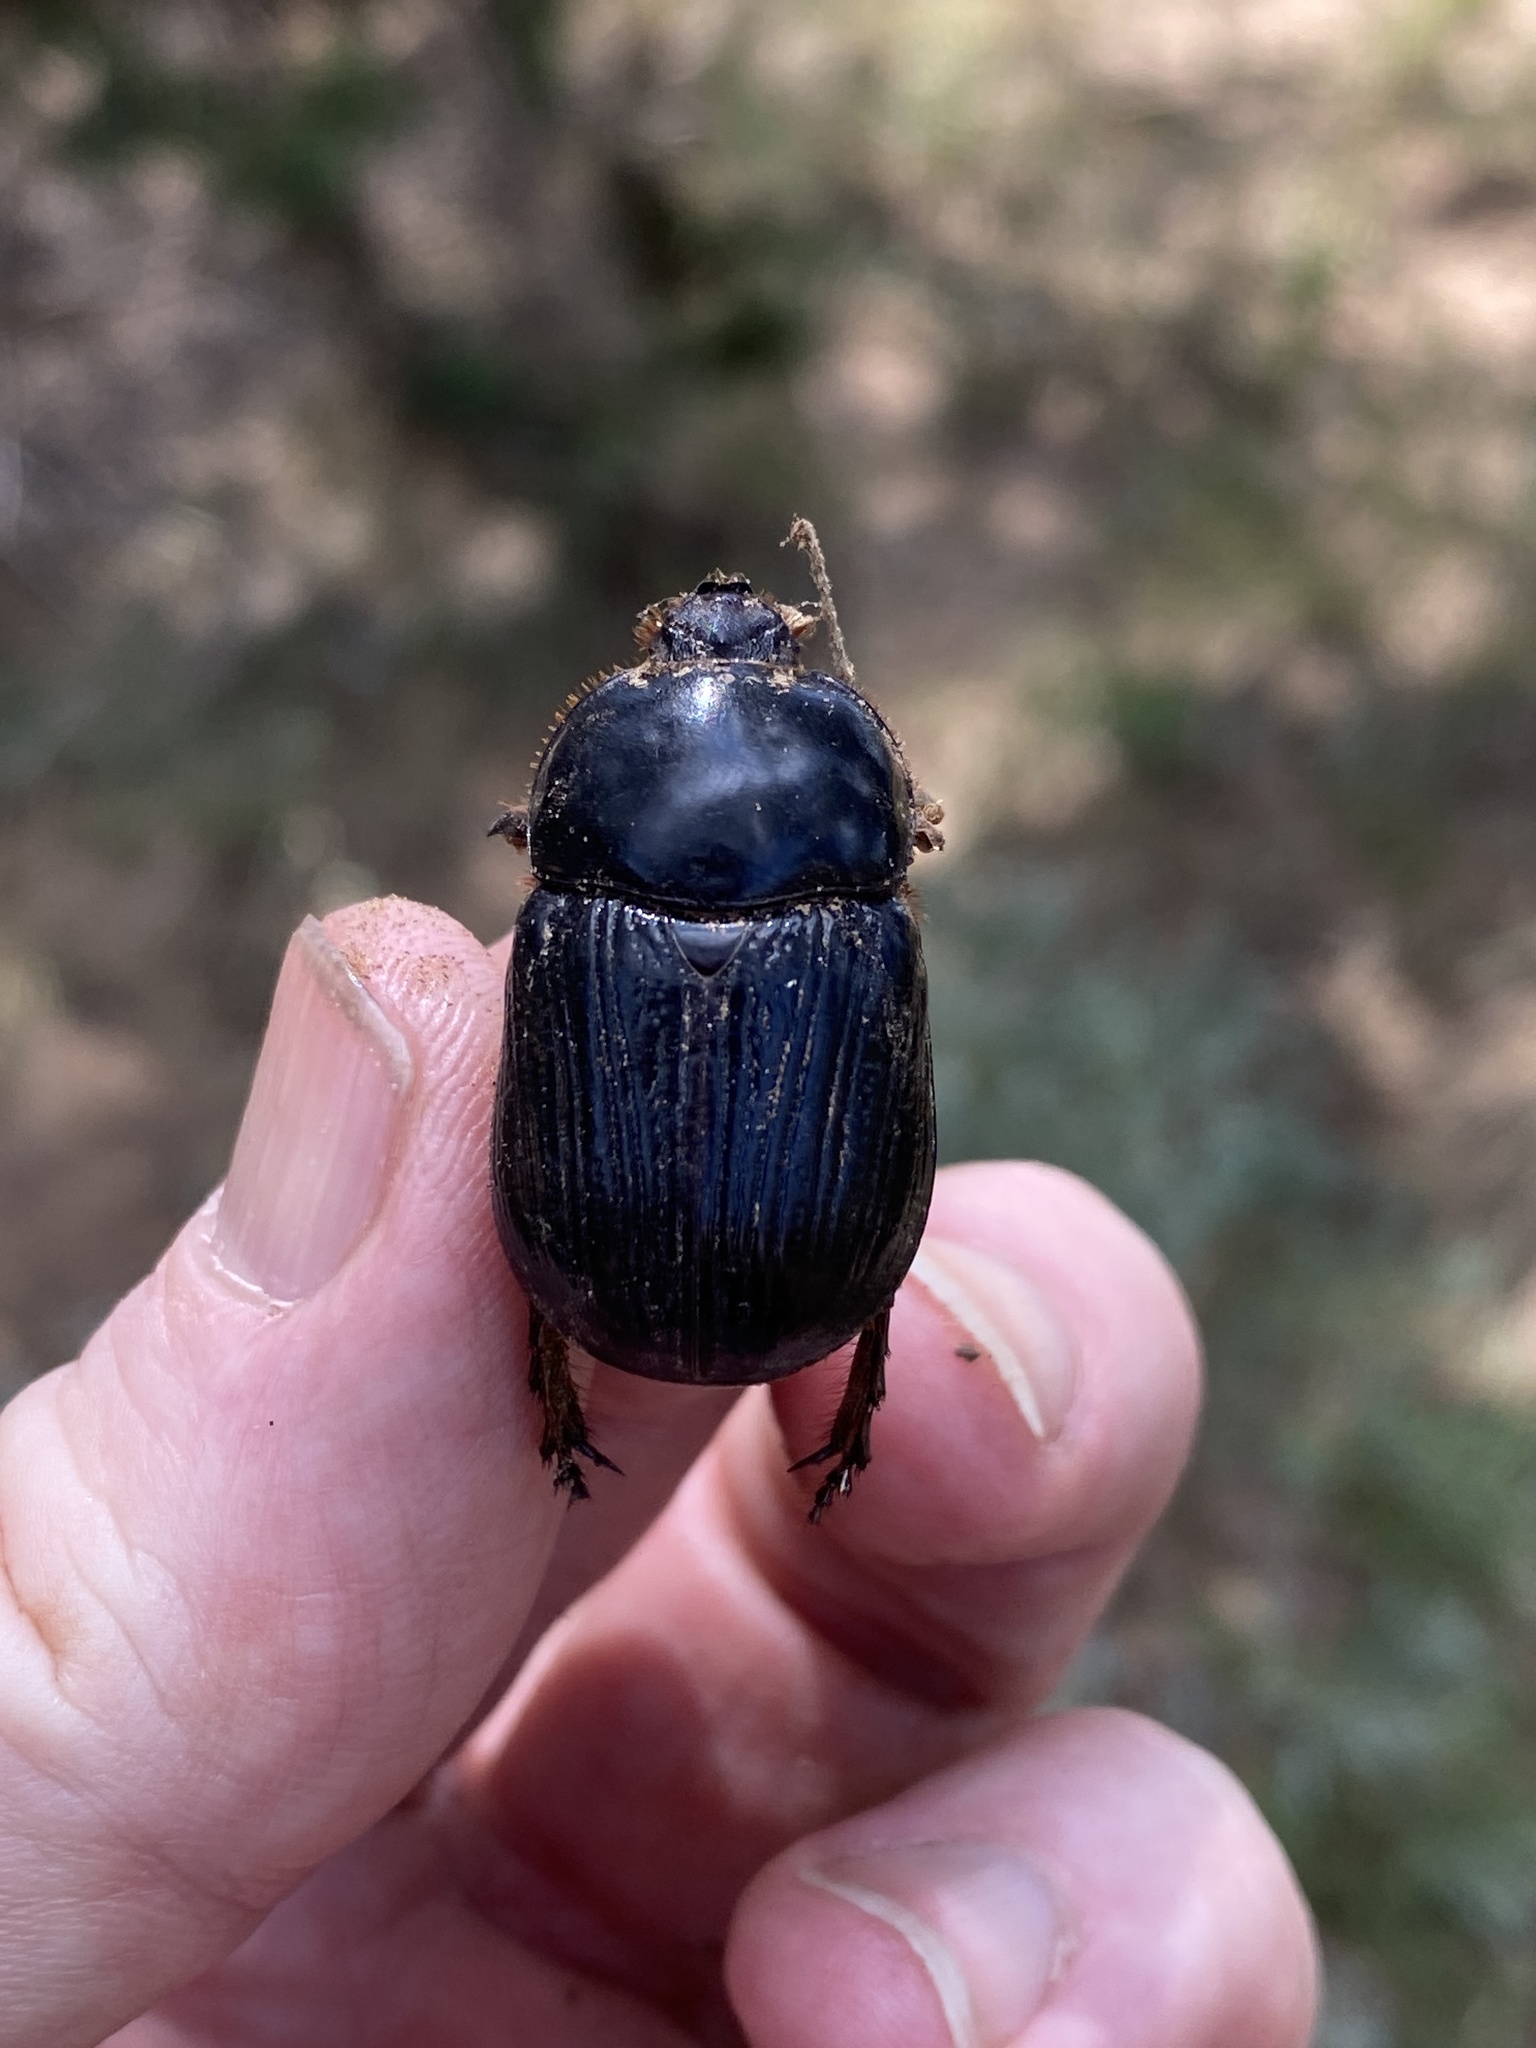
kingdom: Animalia
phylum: Arthropoda
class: Insecta
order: Coleoptera
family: Scarabaeidae
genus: Xyloryctes
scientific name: Xyloryctes thestalus
